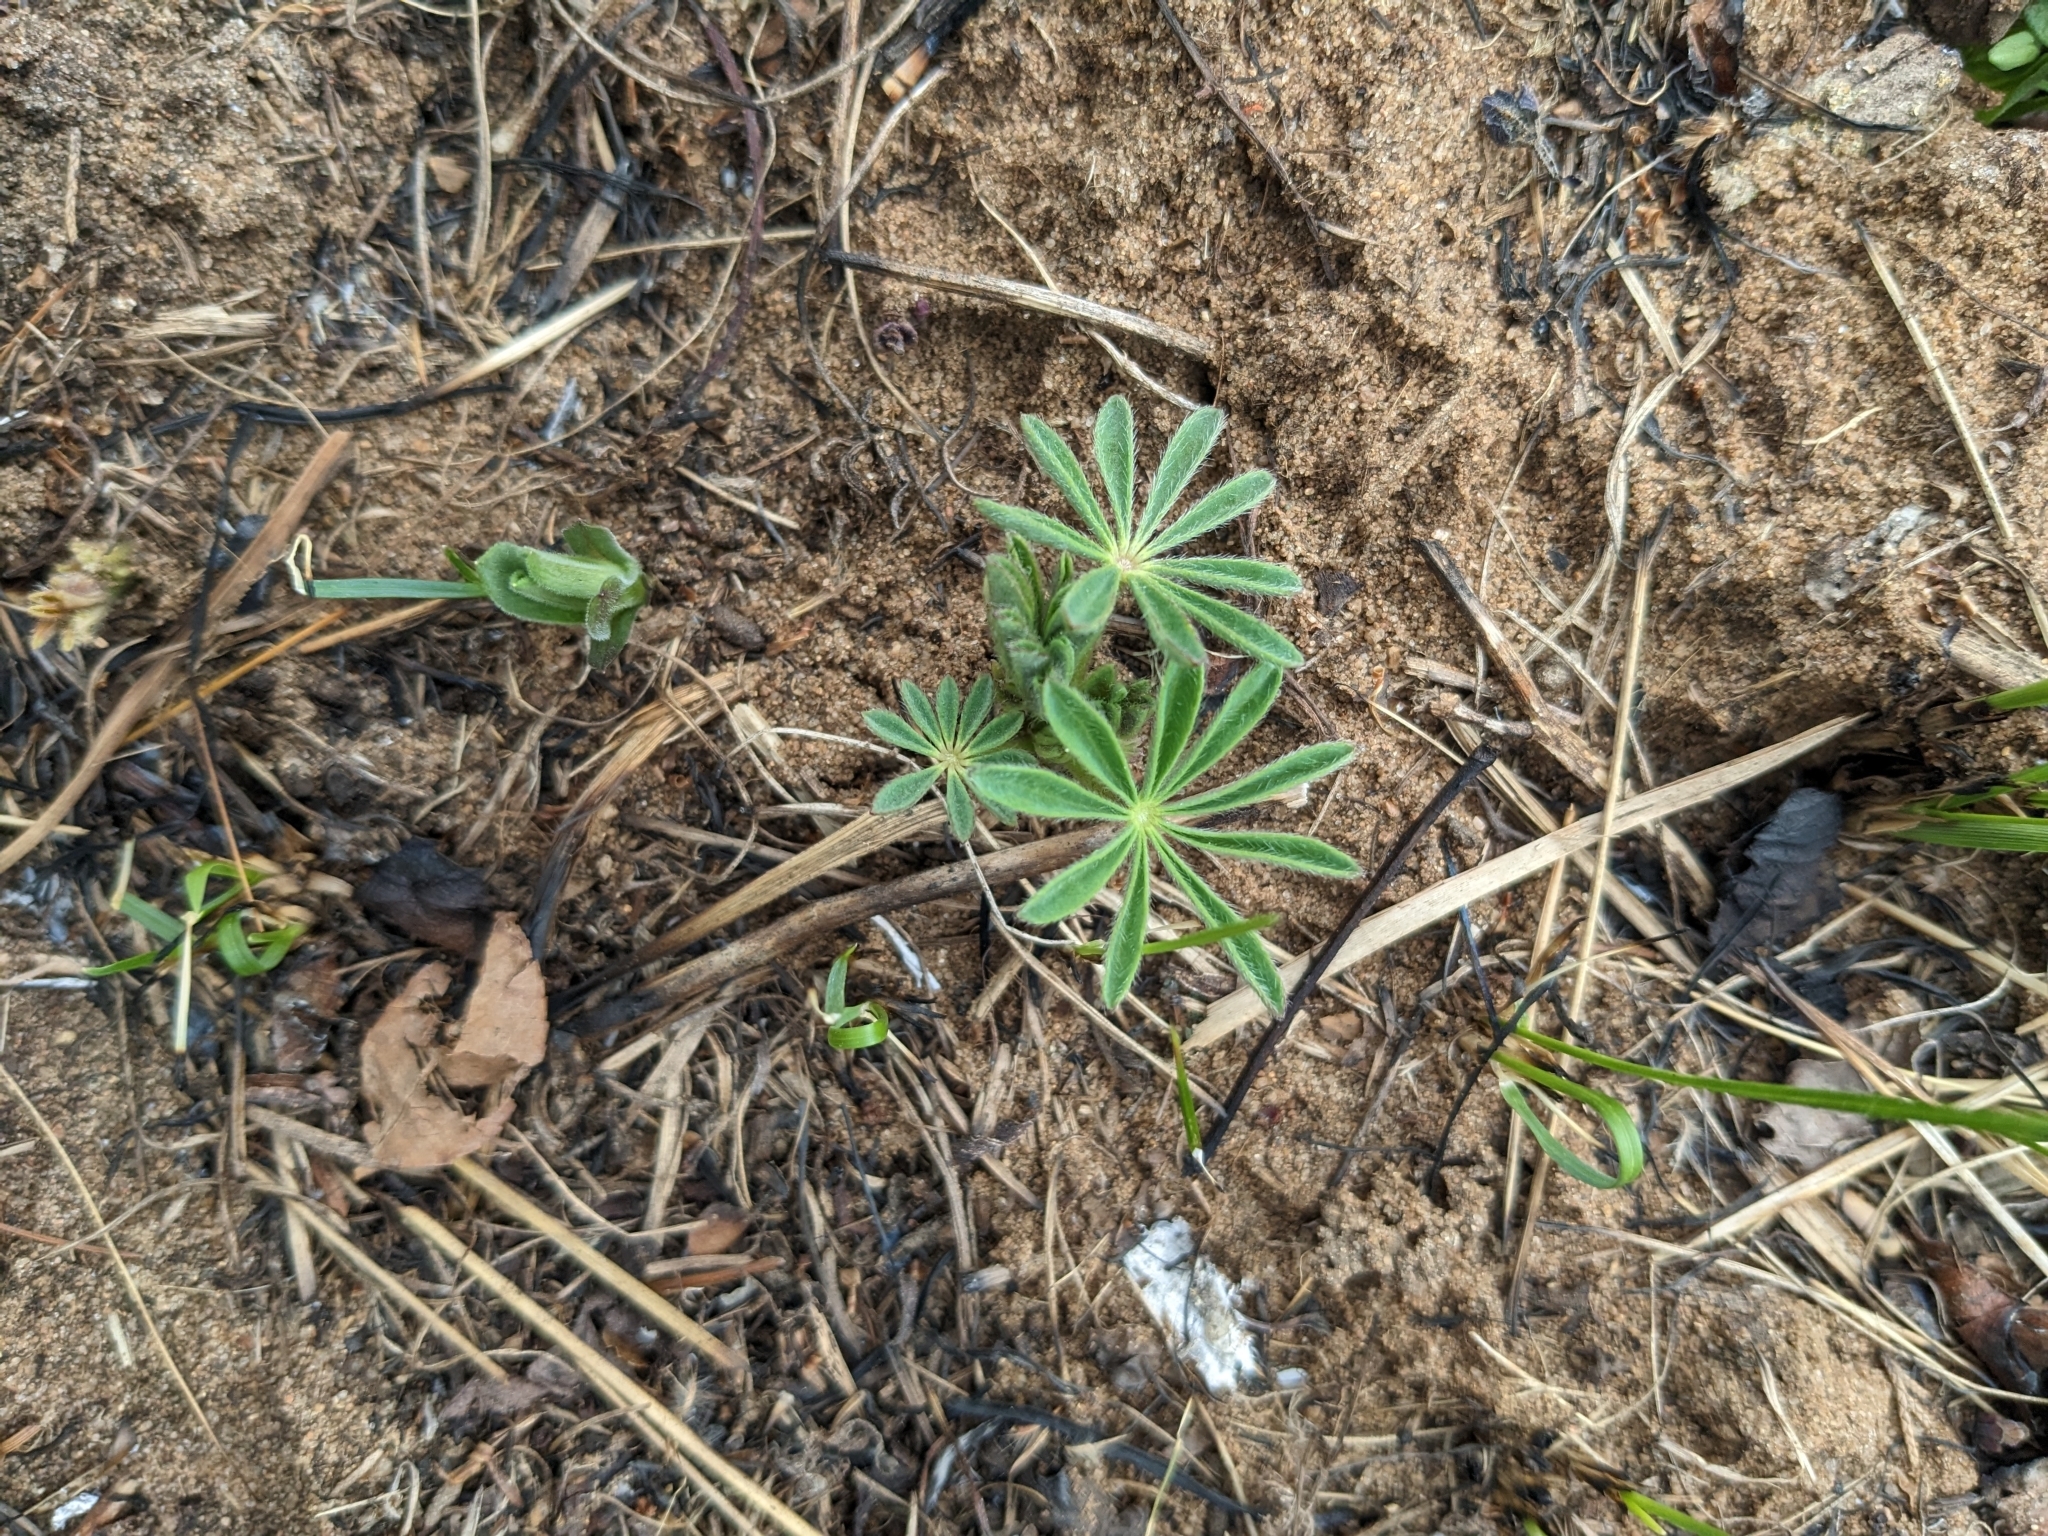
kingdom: Plantae
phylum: Tracheophyta
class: Magnoliopsida
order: Fabales
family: Fabaceae
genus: Lupinus
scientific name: Lupinus perennis
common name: Sundial lupine
